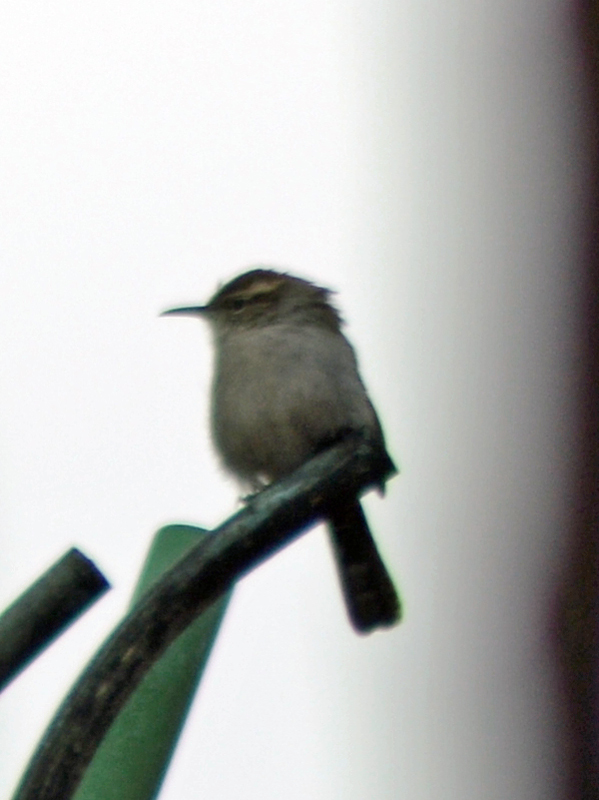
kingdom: Animalia
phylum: Chordata
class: Aves
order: Passeriformes
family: Troglodytidae
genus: Thryomanes
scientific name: Thryomanes bewickii
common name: Bewick's wren
